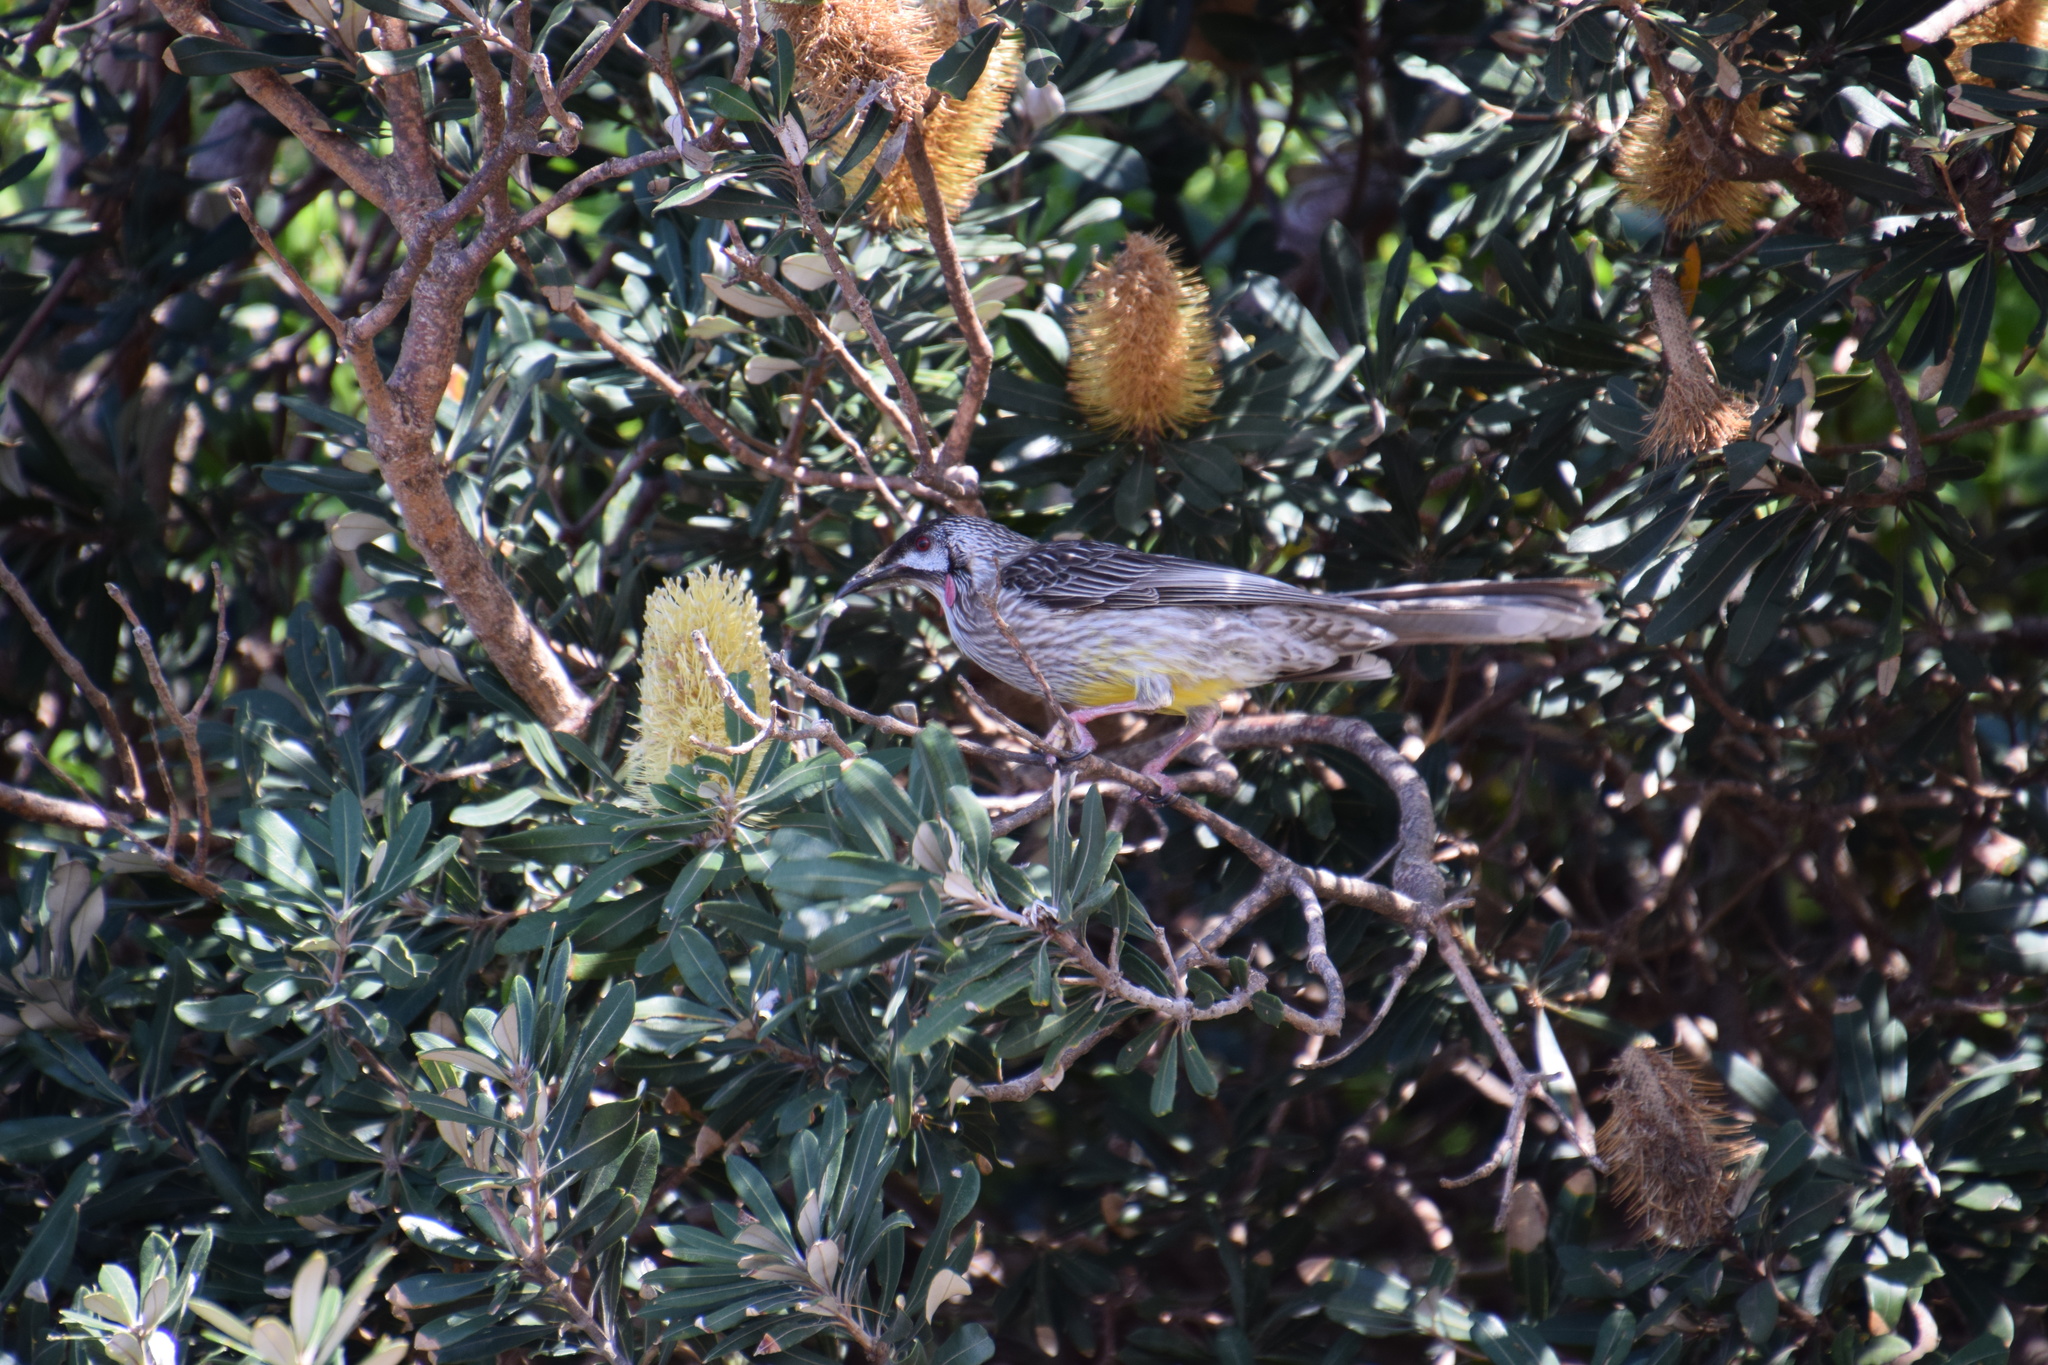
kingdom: Animalia
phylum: Chordata
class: Aves
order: Passeriformes
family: Meliphagidae
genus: Anthochaera
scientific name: Anthochaera carunculata
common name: Red wattlebird
